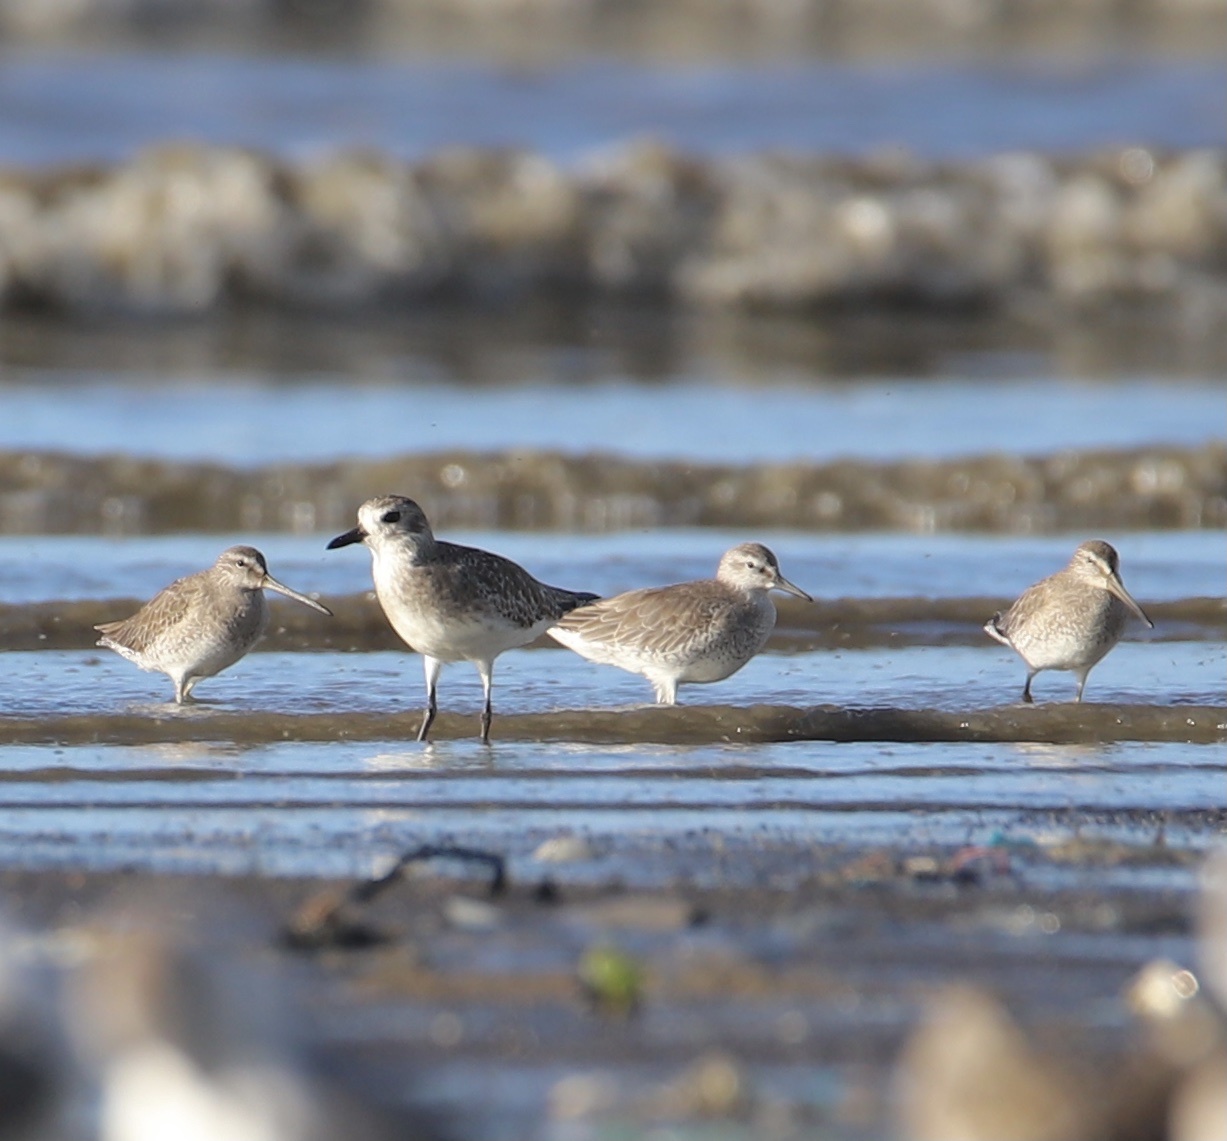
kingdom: Animalia
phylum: Chordata
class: Aves
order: Charadriiformes
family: Scolopacidae
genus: Calidris
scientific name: Calidris canutus
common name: Red knot
